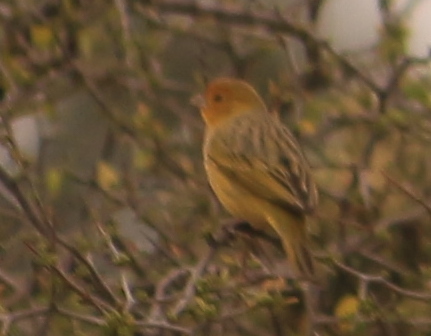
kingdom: Animalia
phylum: Chordata
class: Aves
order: Passeriformes
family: Thraupidae
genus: Sicalis
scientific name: Sicalis flaveola
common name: Saffron finch
